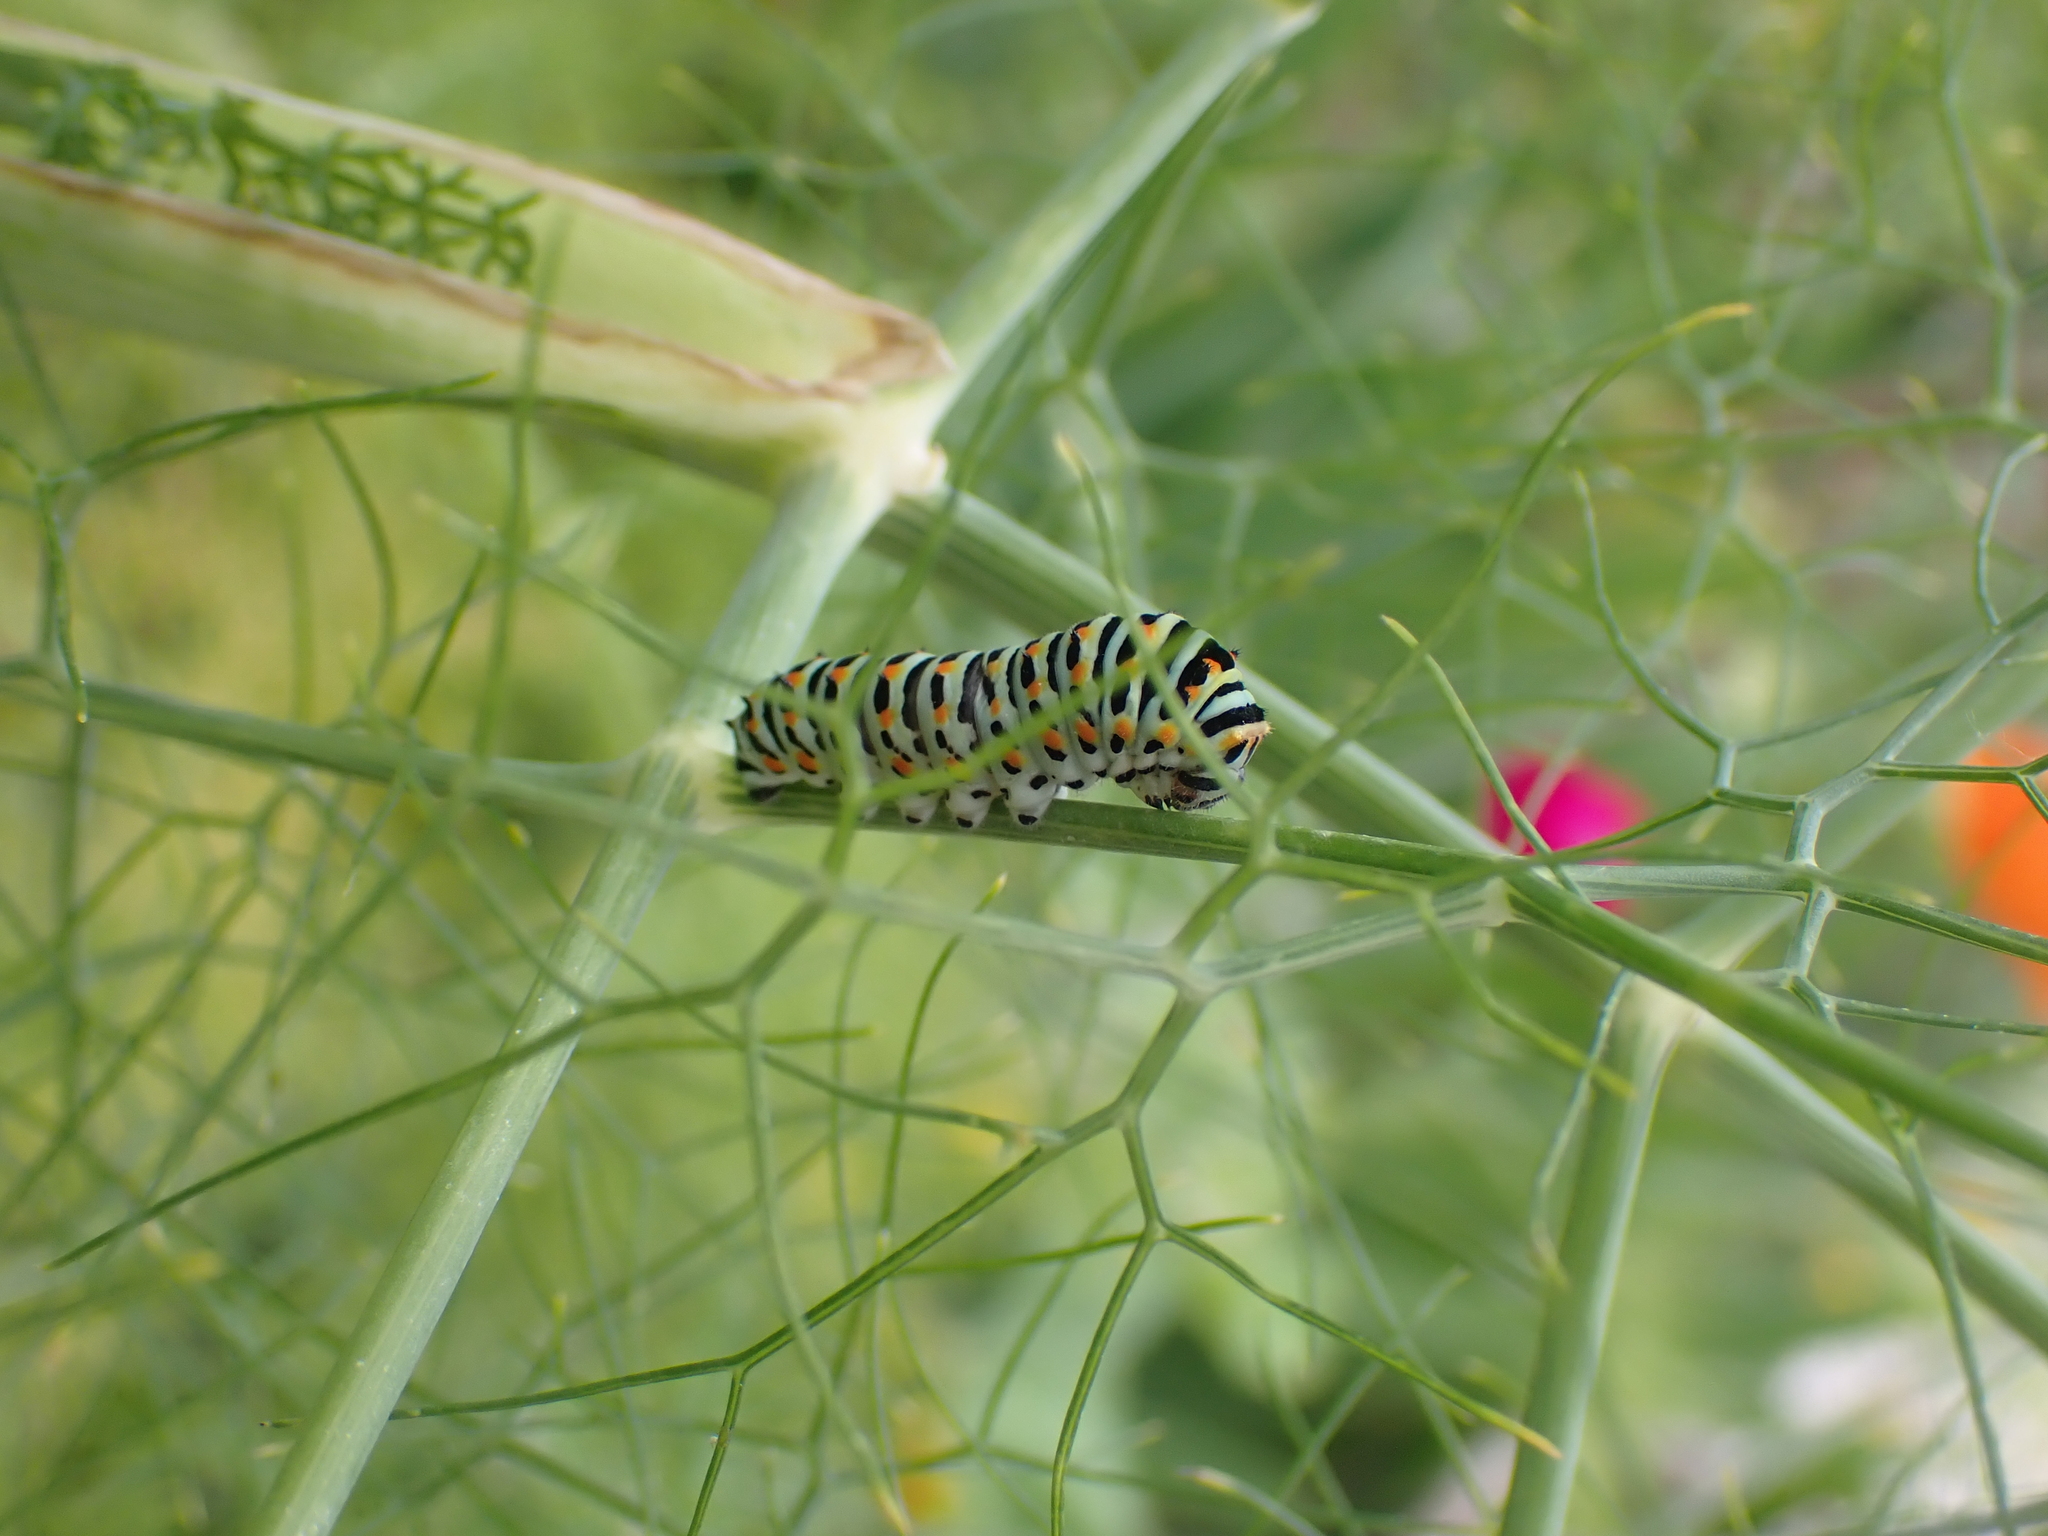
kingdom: Animalia
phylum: Arthropoda
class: Insecta
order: Lepidoptera
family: Papilionidae
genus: Papilio
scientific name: Papilio machaon
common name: Swallowtail
